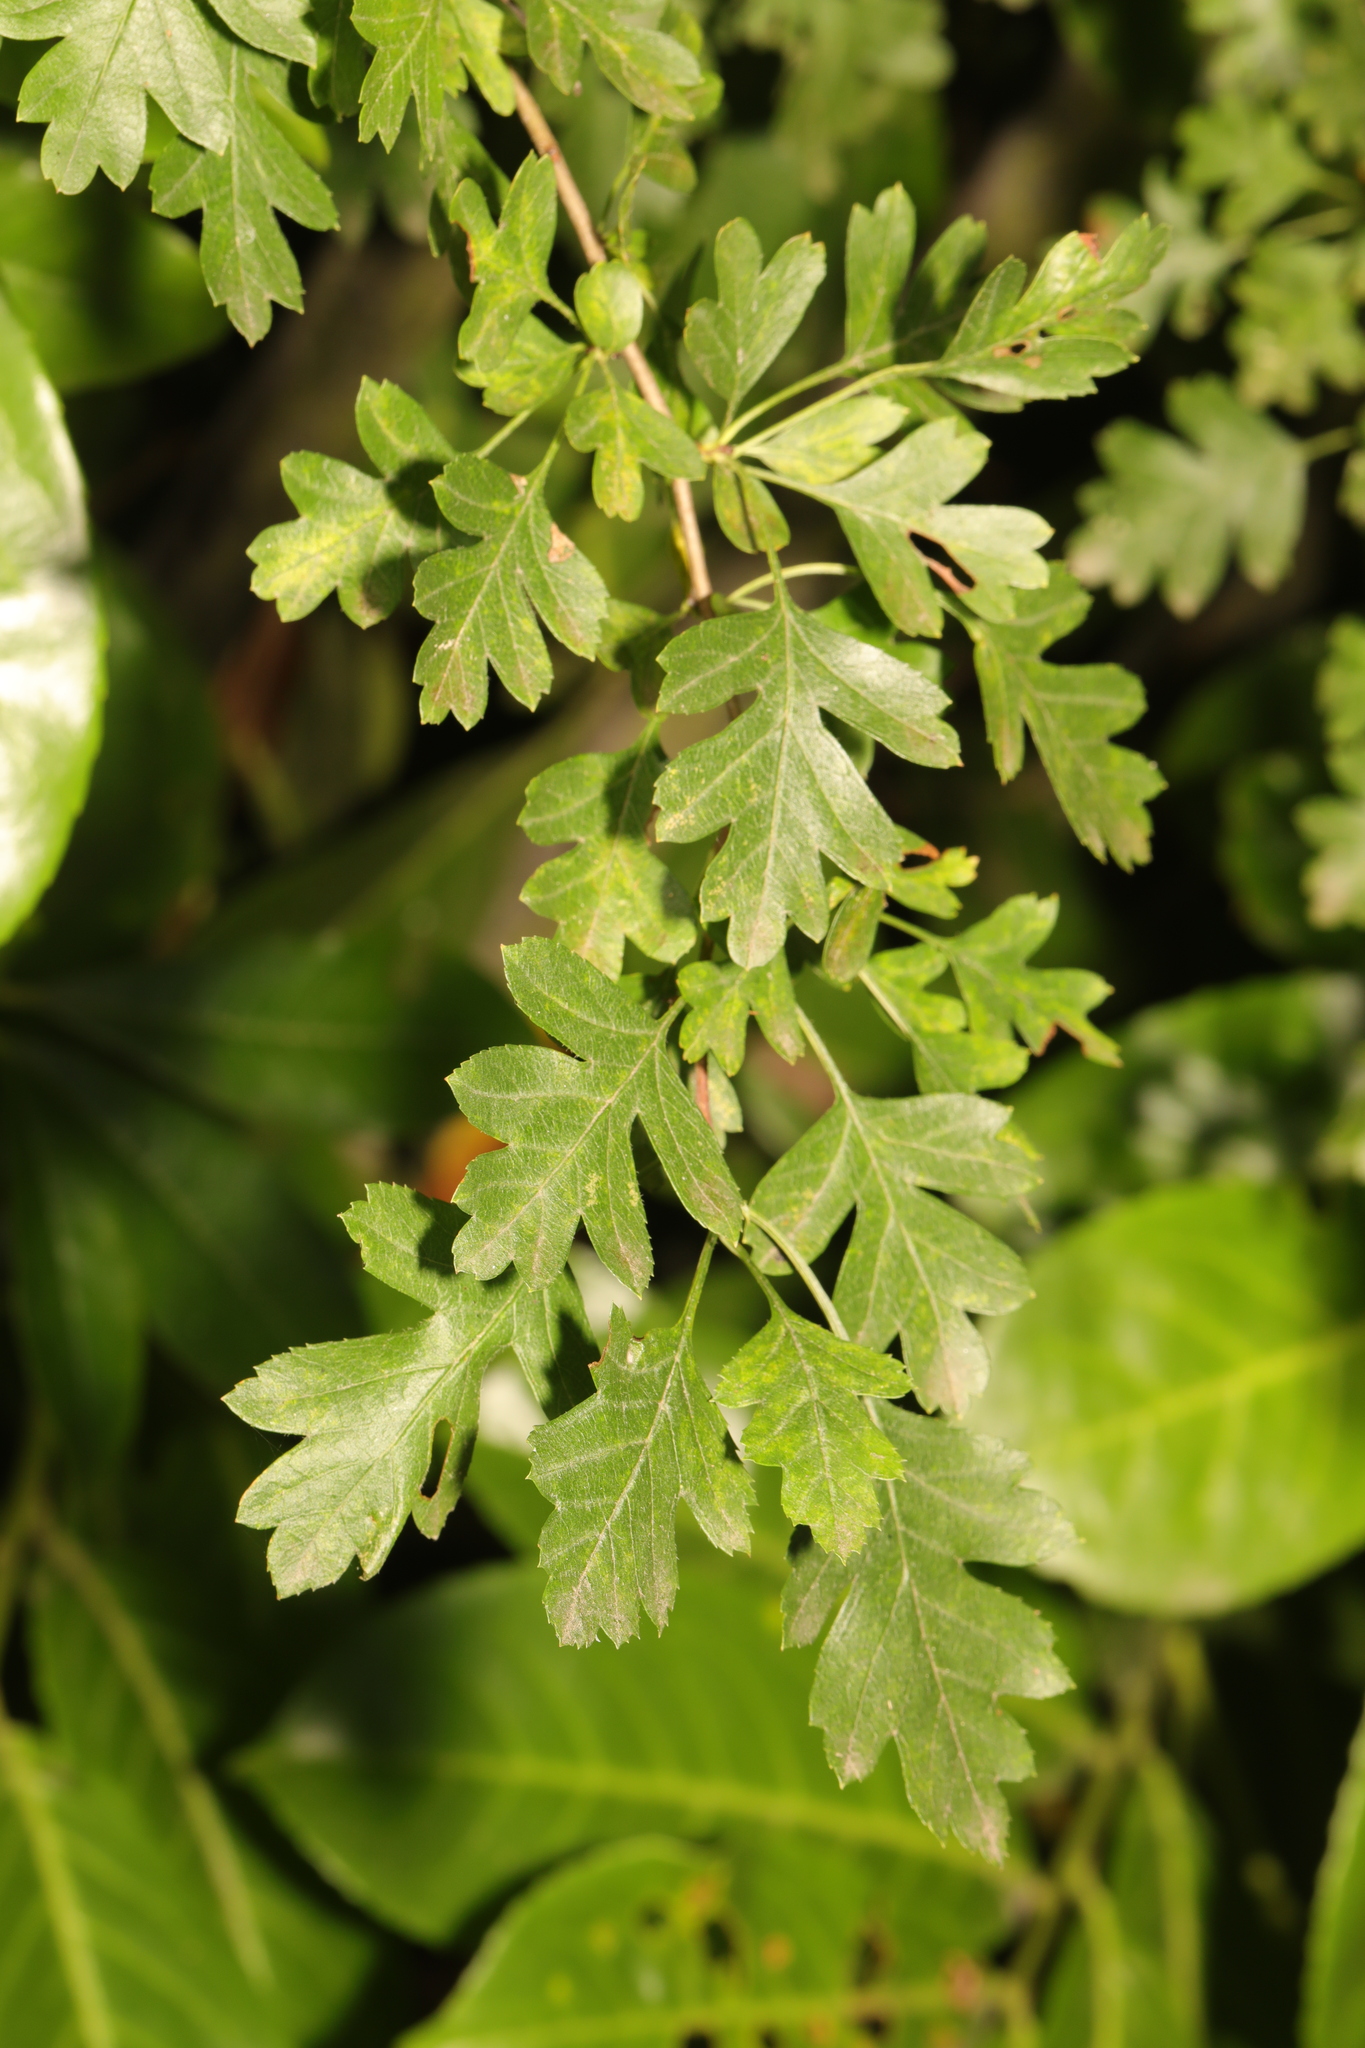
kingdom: Plantae
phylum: Tracheophyta
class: Magnoliopsida
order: Rosales
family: Rosaceae
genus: Crataegus
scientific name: Crataegus monogyna
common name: Hawthorn
